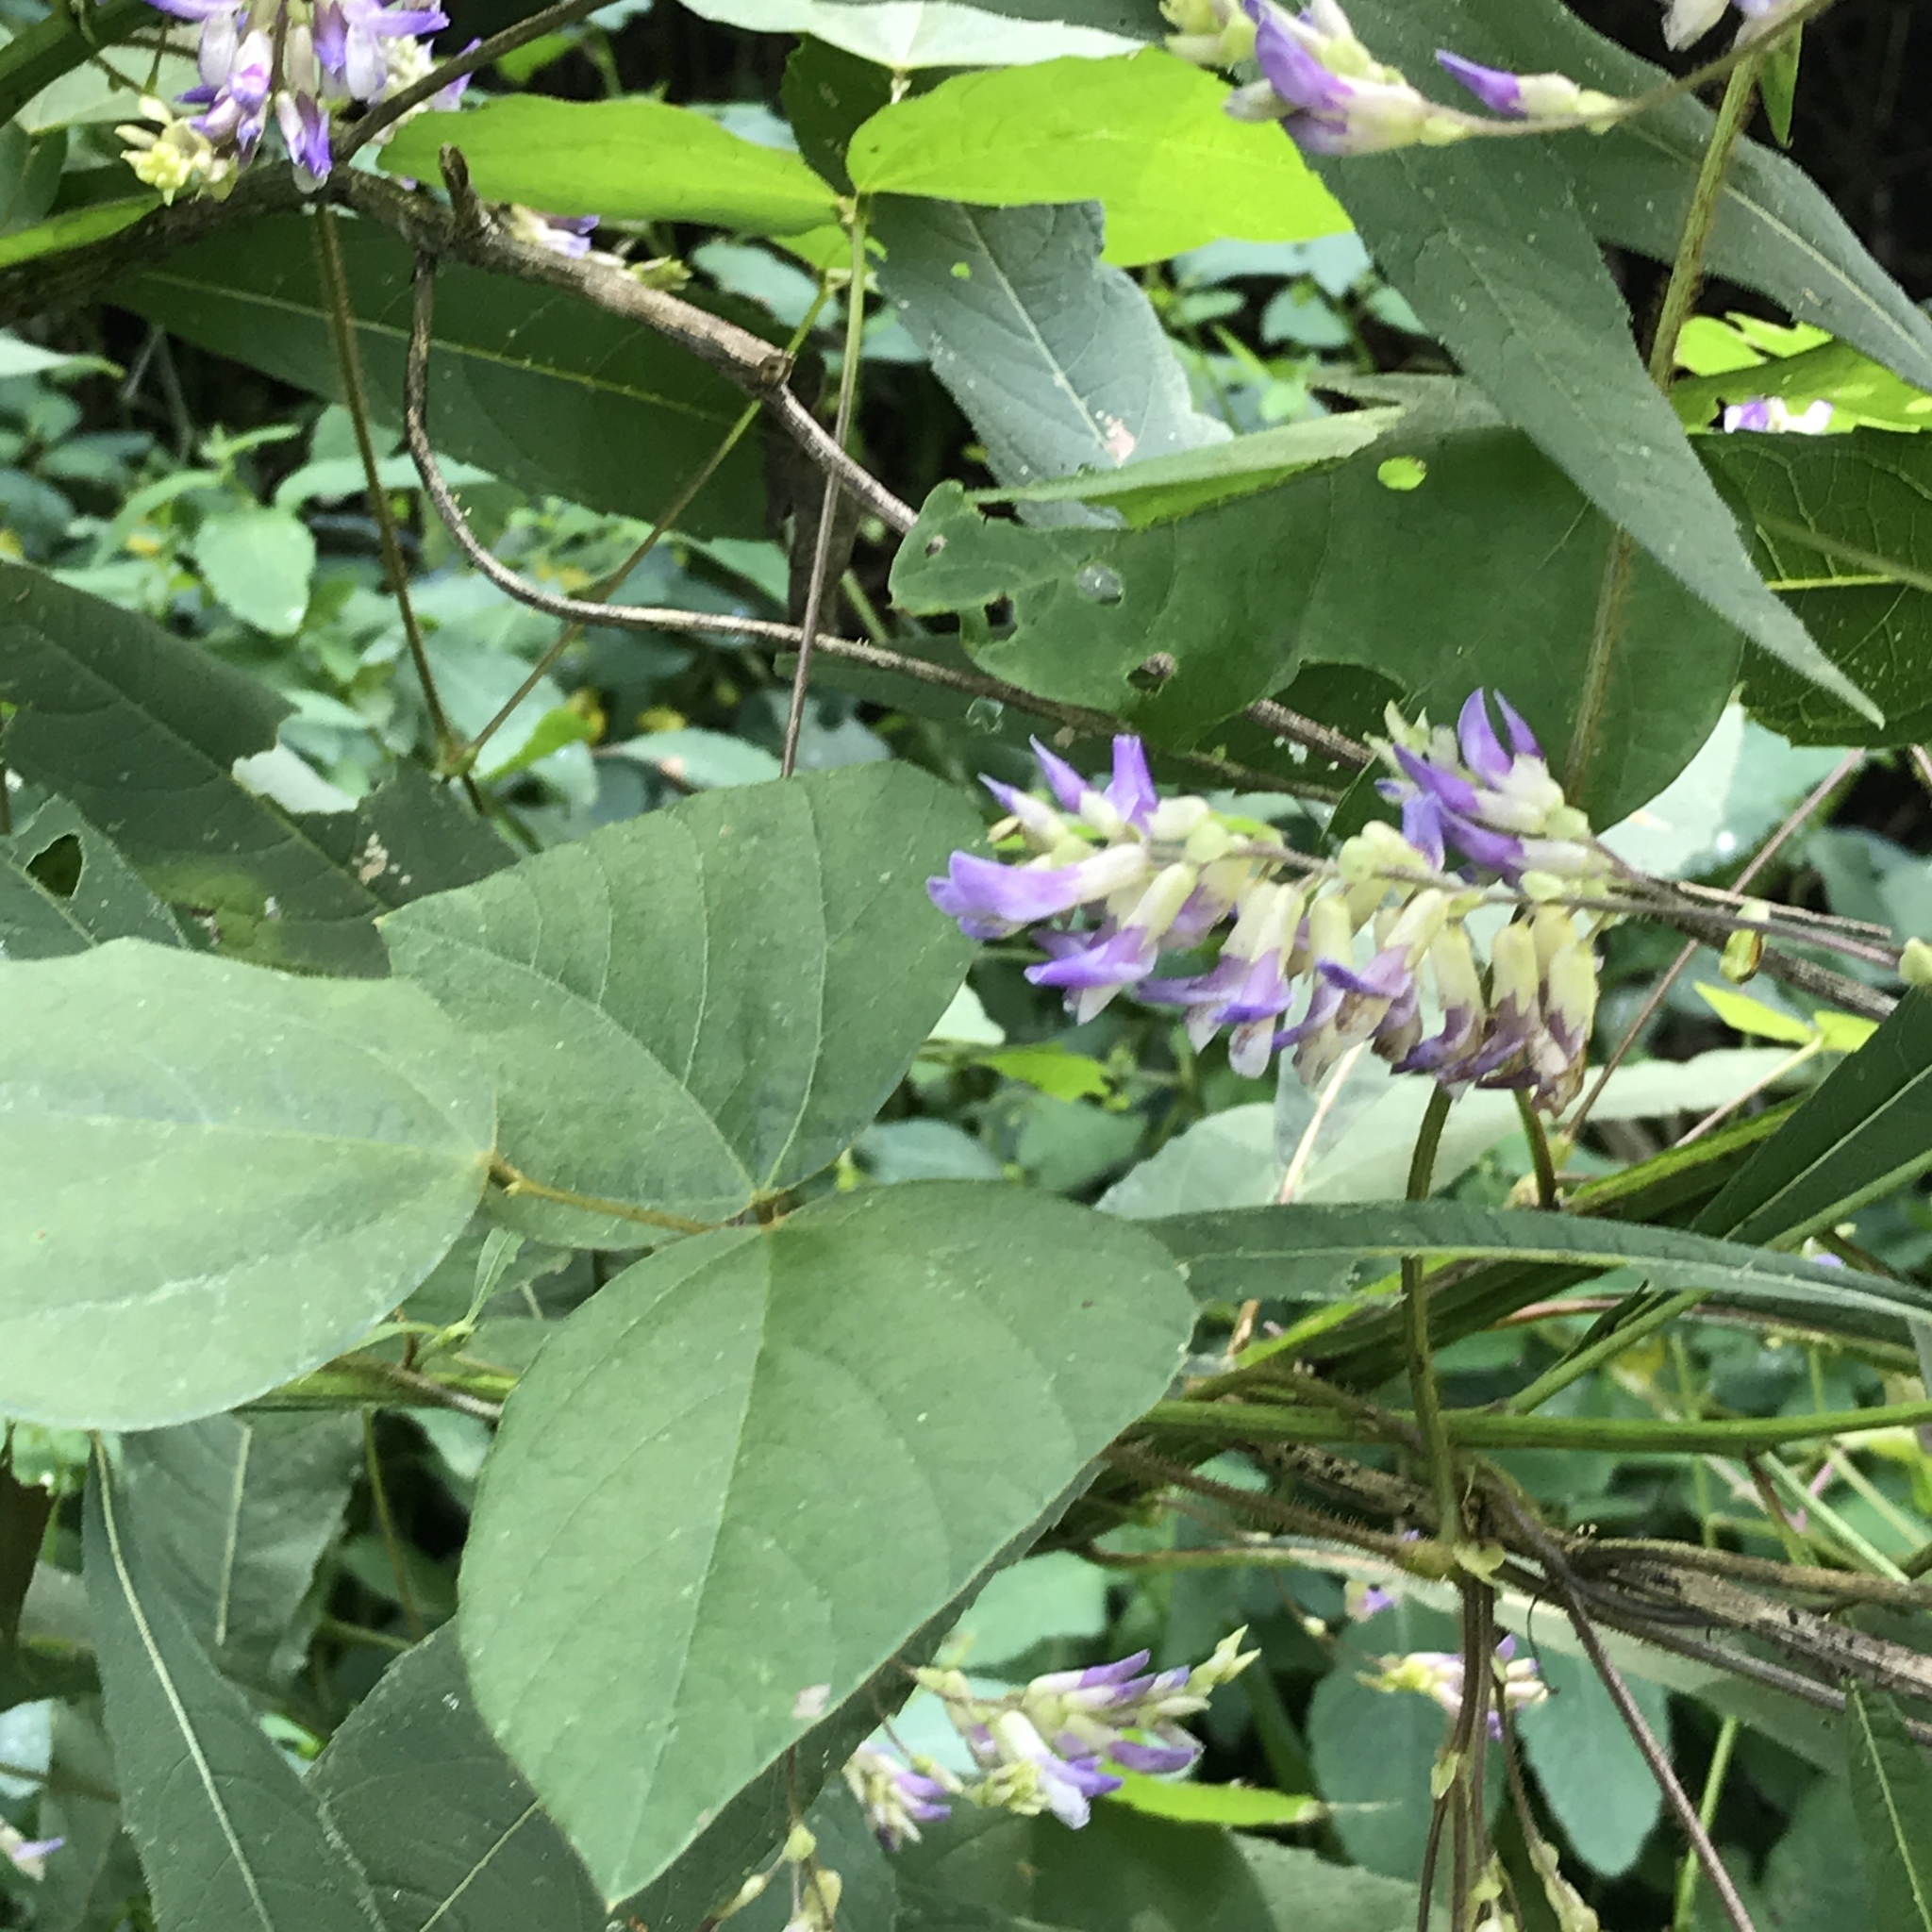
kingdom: Plantae
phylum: Tracheophyta
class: Magnoliopsida
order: Fabales
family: Fabaceae
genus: Amphicarpaea
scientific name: Amphicarpaea bracteata
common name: American hog peanut
